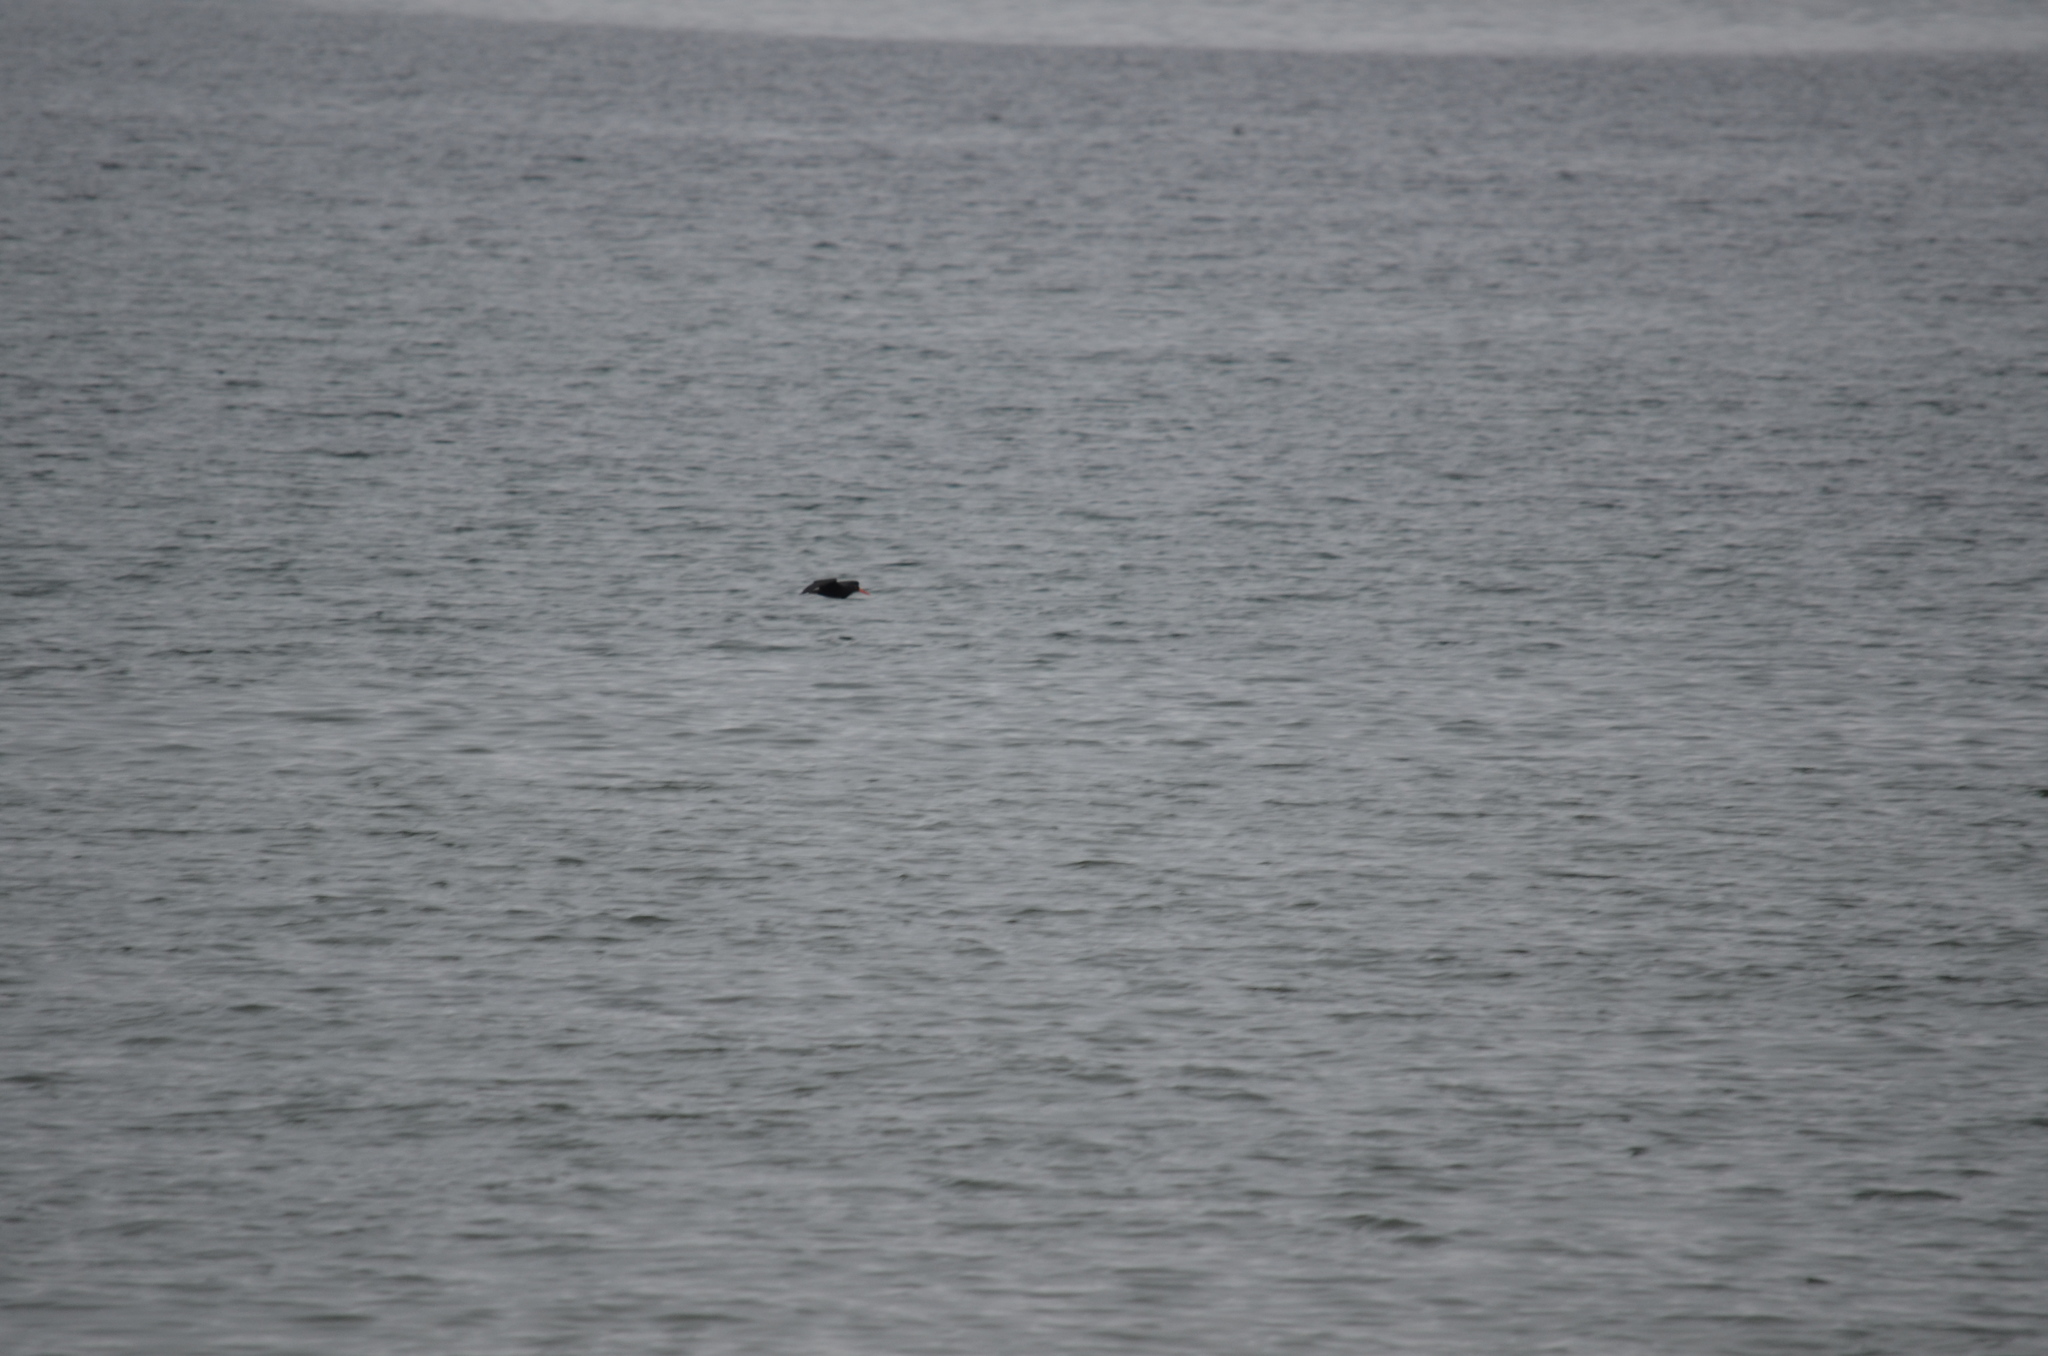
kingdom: Animalia
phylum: Chordata
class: Aves
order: Charadriiformes
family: Haematopodidae
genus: Haematopus
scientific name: Haematopus bachmani
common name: Black oystercatcher
